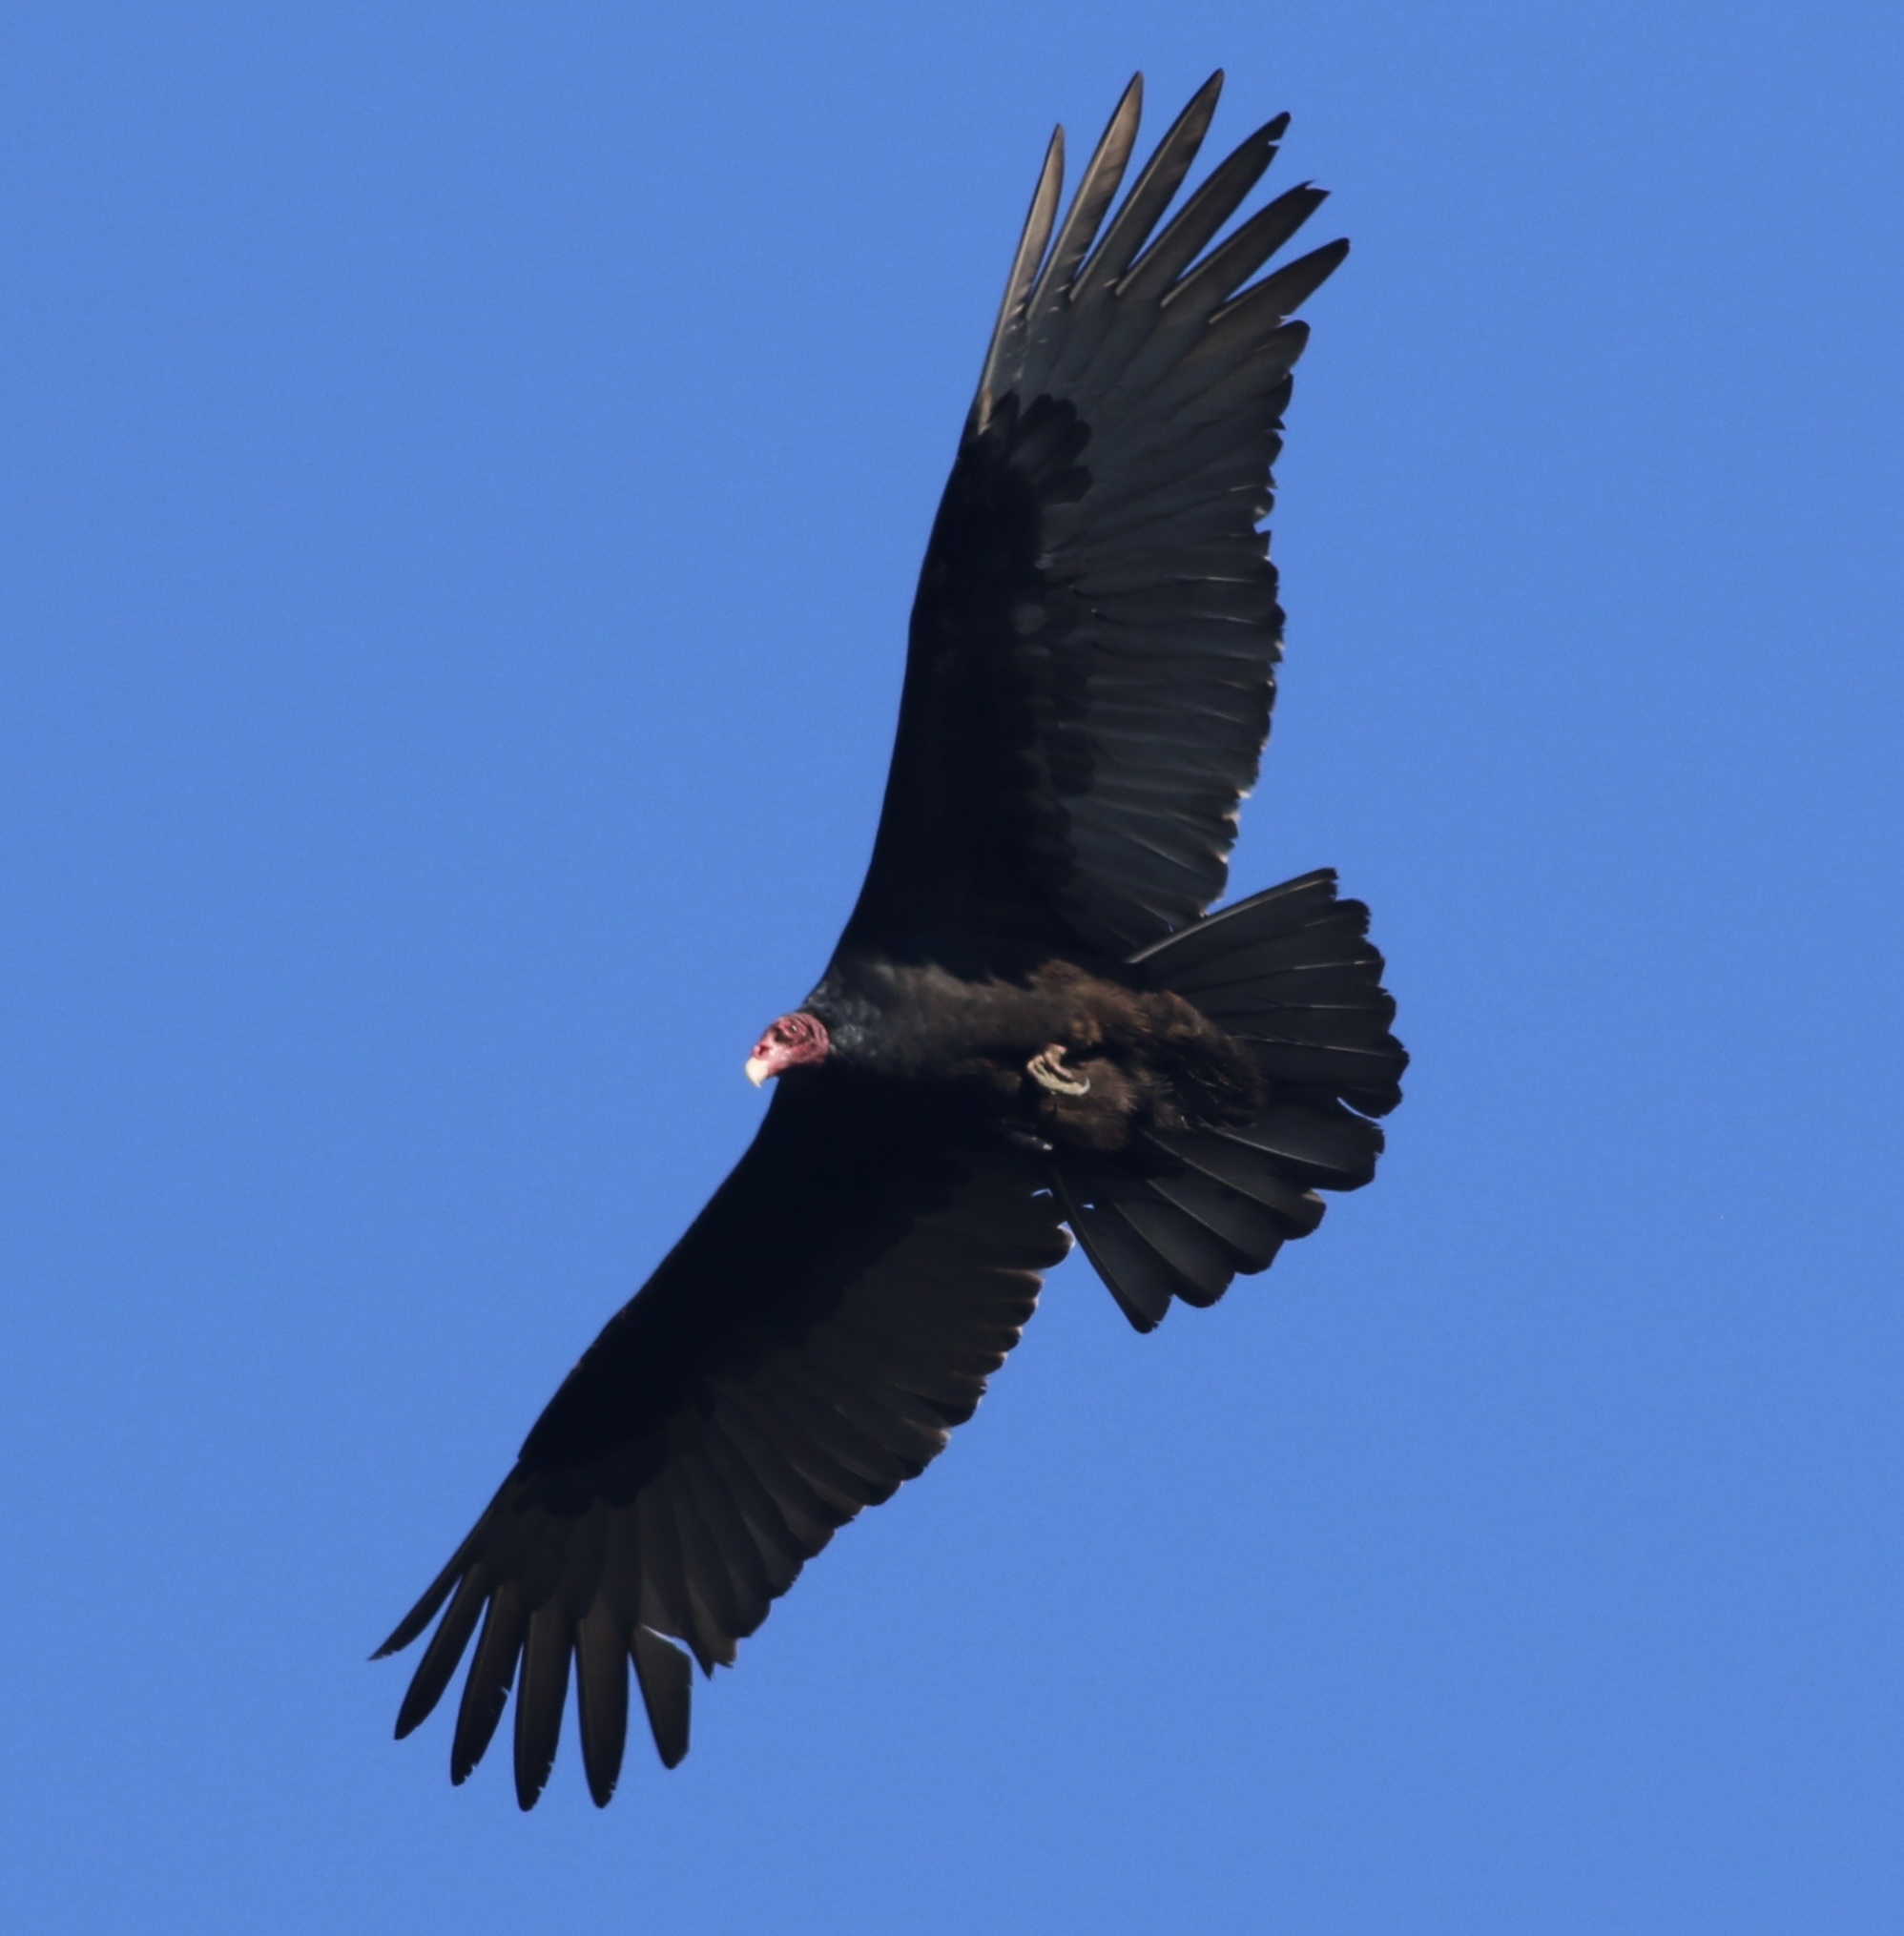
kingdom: Animalia
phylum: Chordata
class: Aves
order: Accipitriformes
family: Cathartidae
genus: Cathartes
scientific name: Cathartes aura
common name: Turkey vulture
